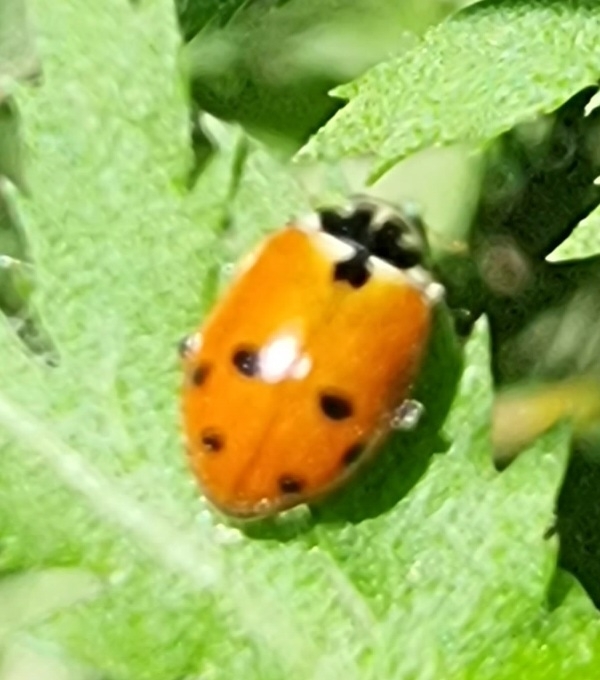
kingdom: Animalia
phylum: Arthropoda
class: Insecta
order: Coleoptera
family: Coccinellidae
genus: Hippodamia
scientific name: Hippodamia variegata
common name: Ladybird beetle
